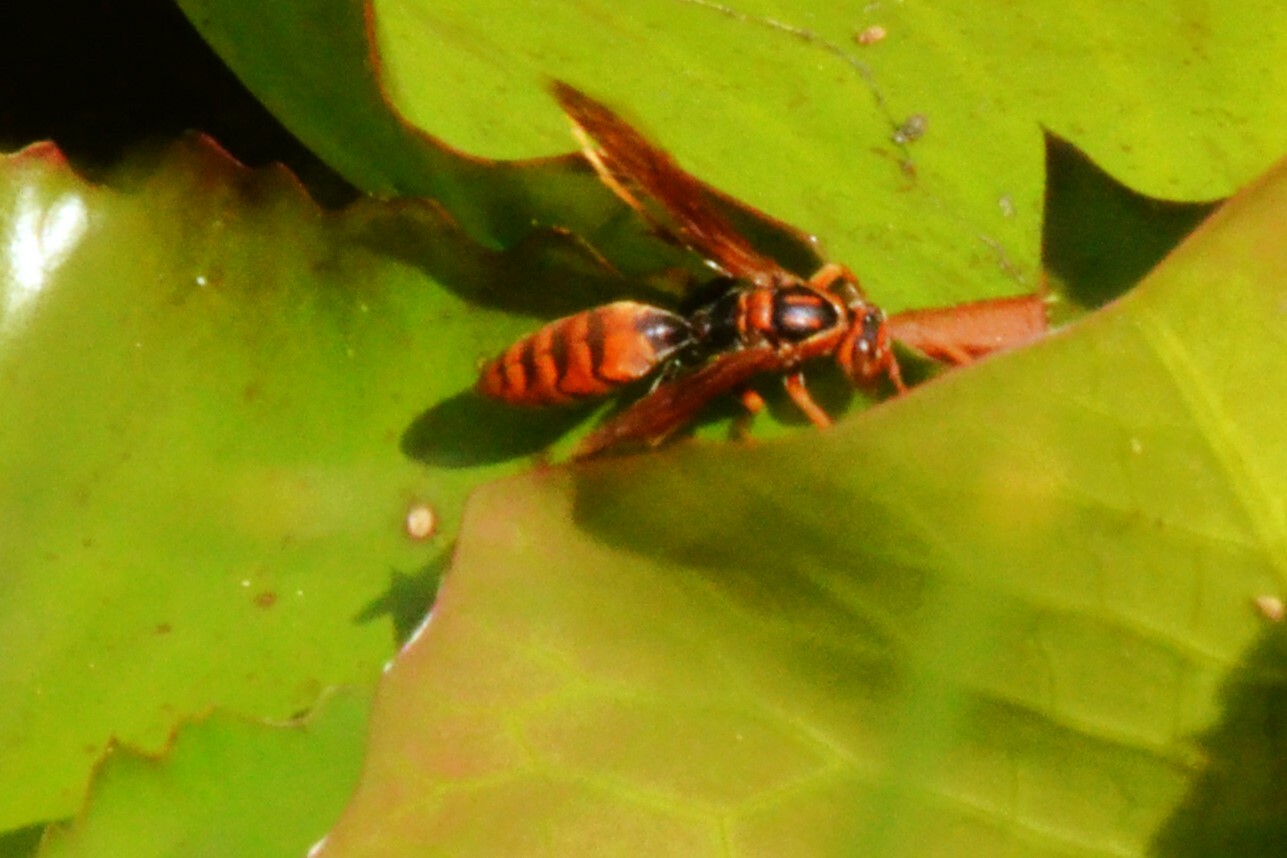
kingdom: Animalia
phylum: Arthropoda
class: Insecta
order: Hymenoptera
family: Eumenidae
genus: Polistes
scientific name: Polistes jokahamae
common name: Paper wasp
